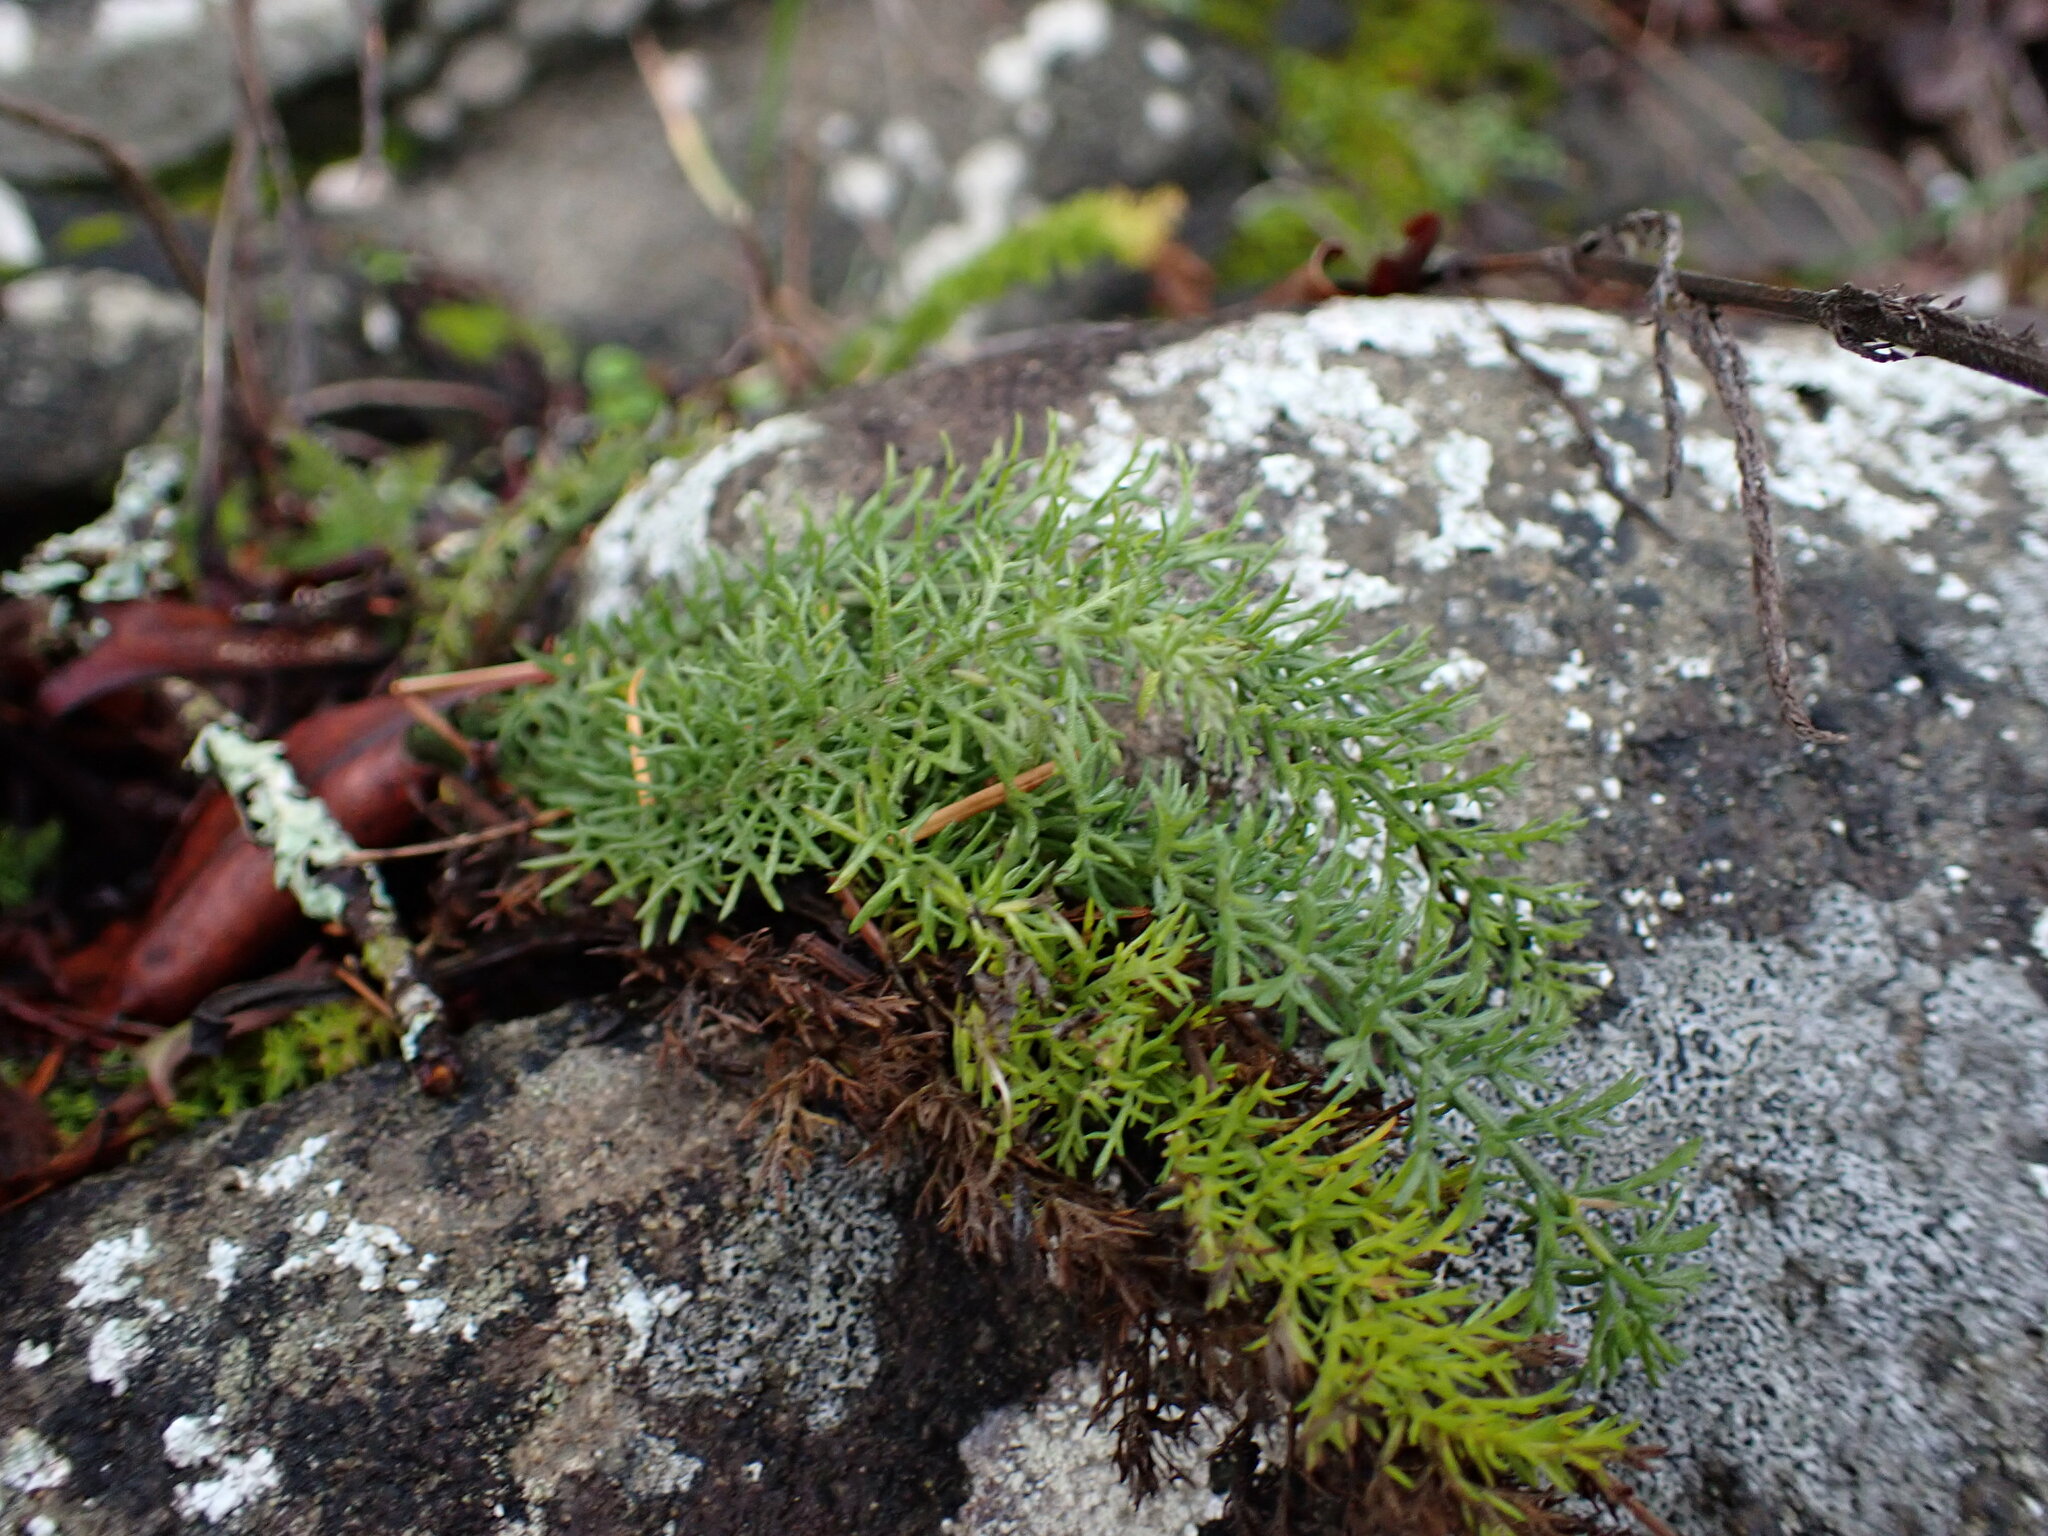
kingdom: Plantae
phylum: Tracheophyta
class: Magnoliopsida
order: Asterales
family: Asteraceae
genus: Achillea
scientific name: Achillea millefolium
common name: Yarrow
